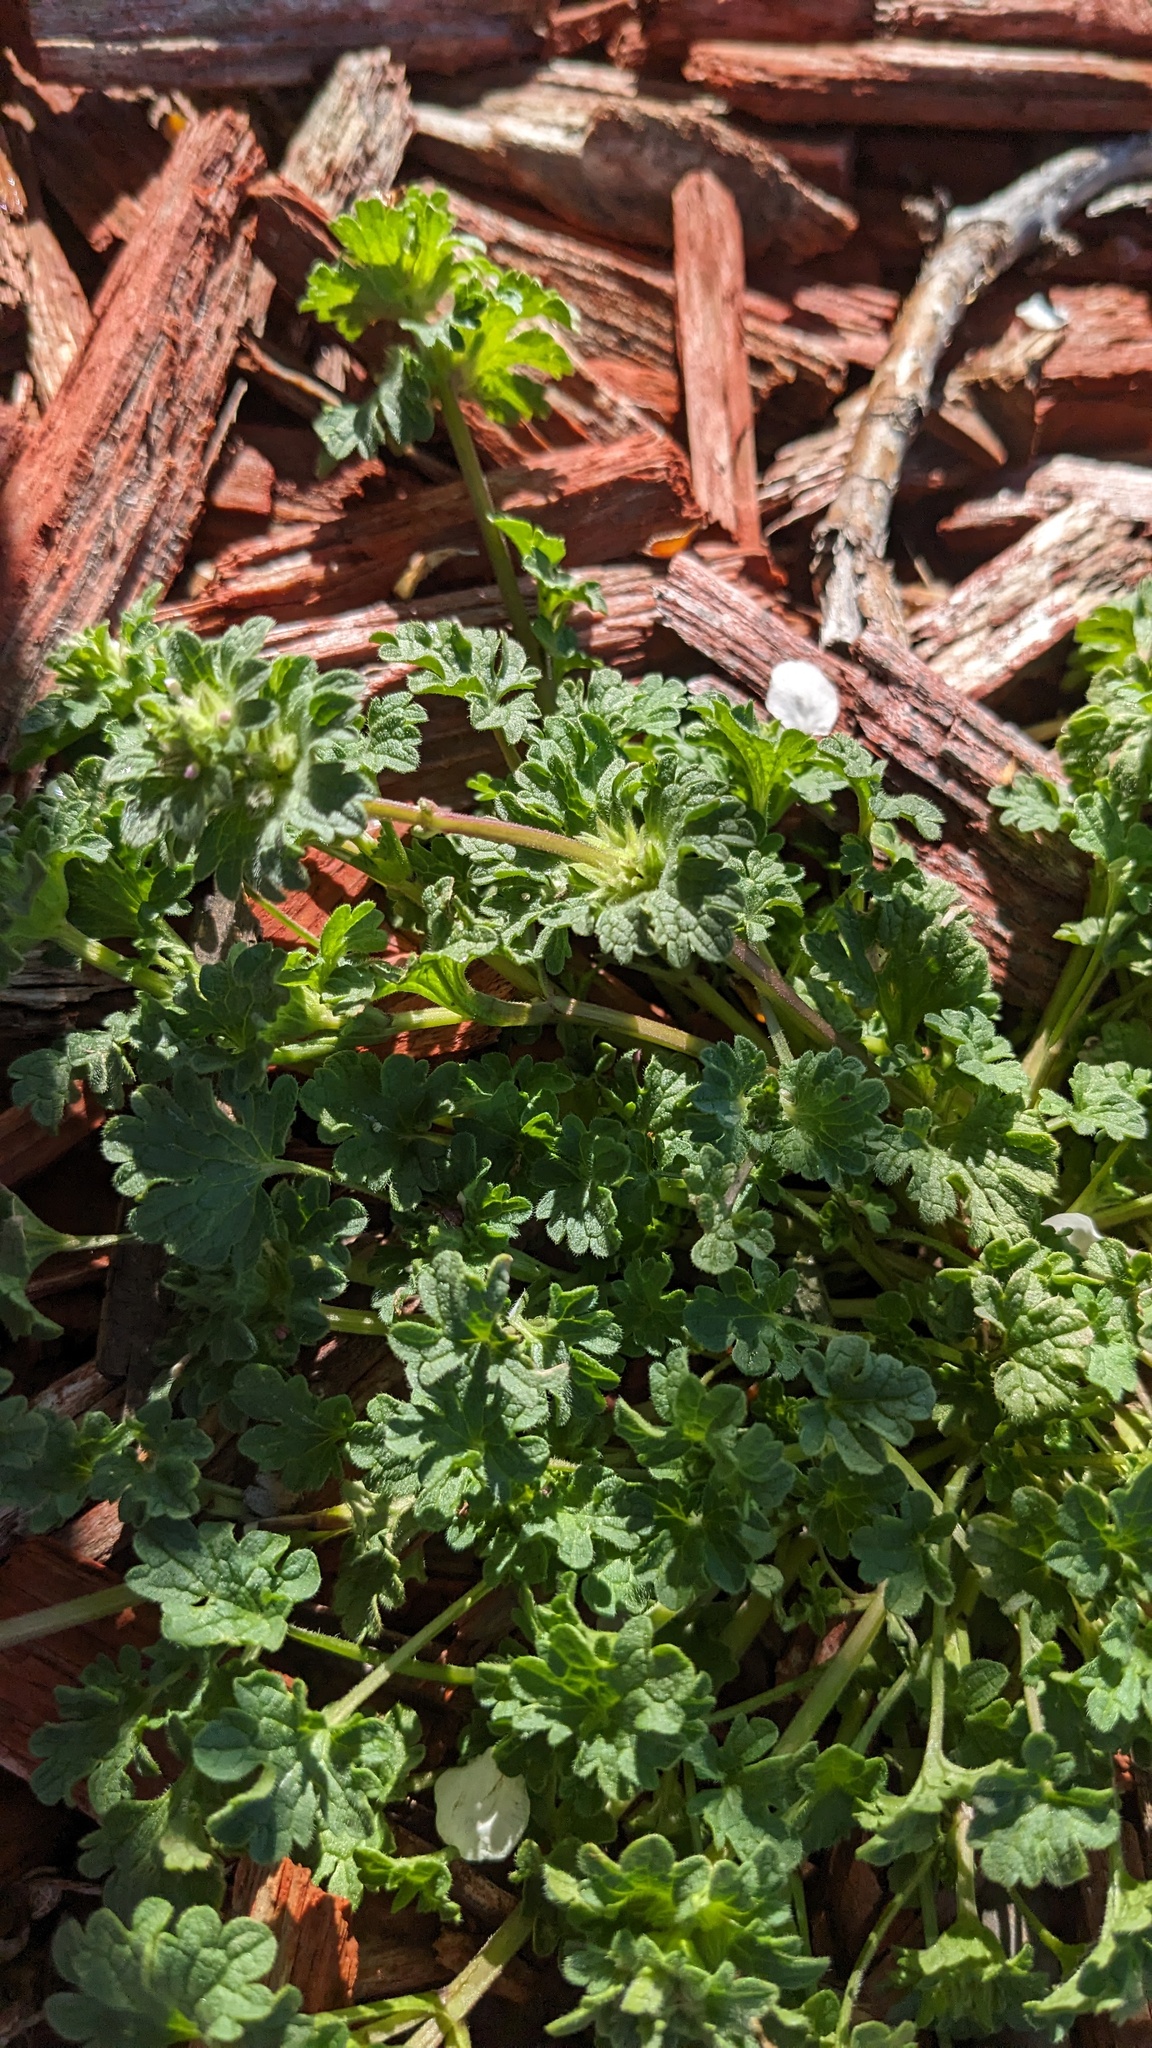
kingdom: Plantae
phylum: Tracheophyta
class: Magnoliopsida
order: Lamiales
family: Lamiaceae
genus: Lamium
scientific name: Lamium amplexicaule
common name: Henbit dead-nettle
